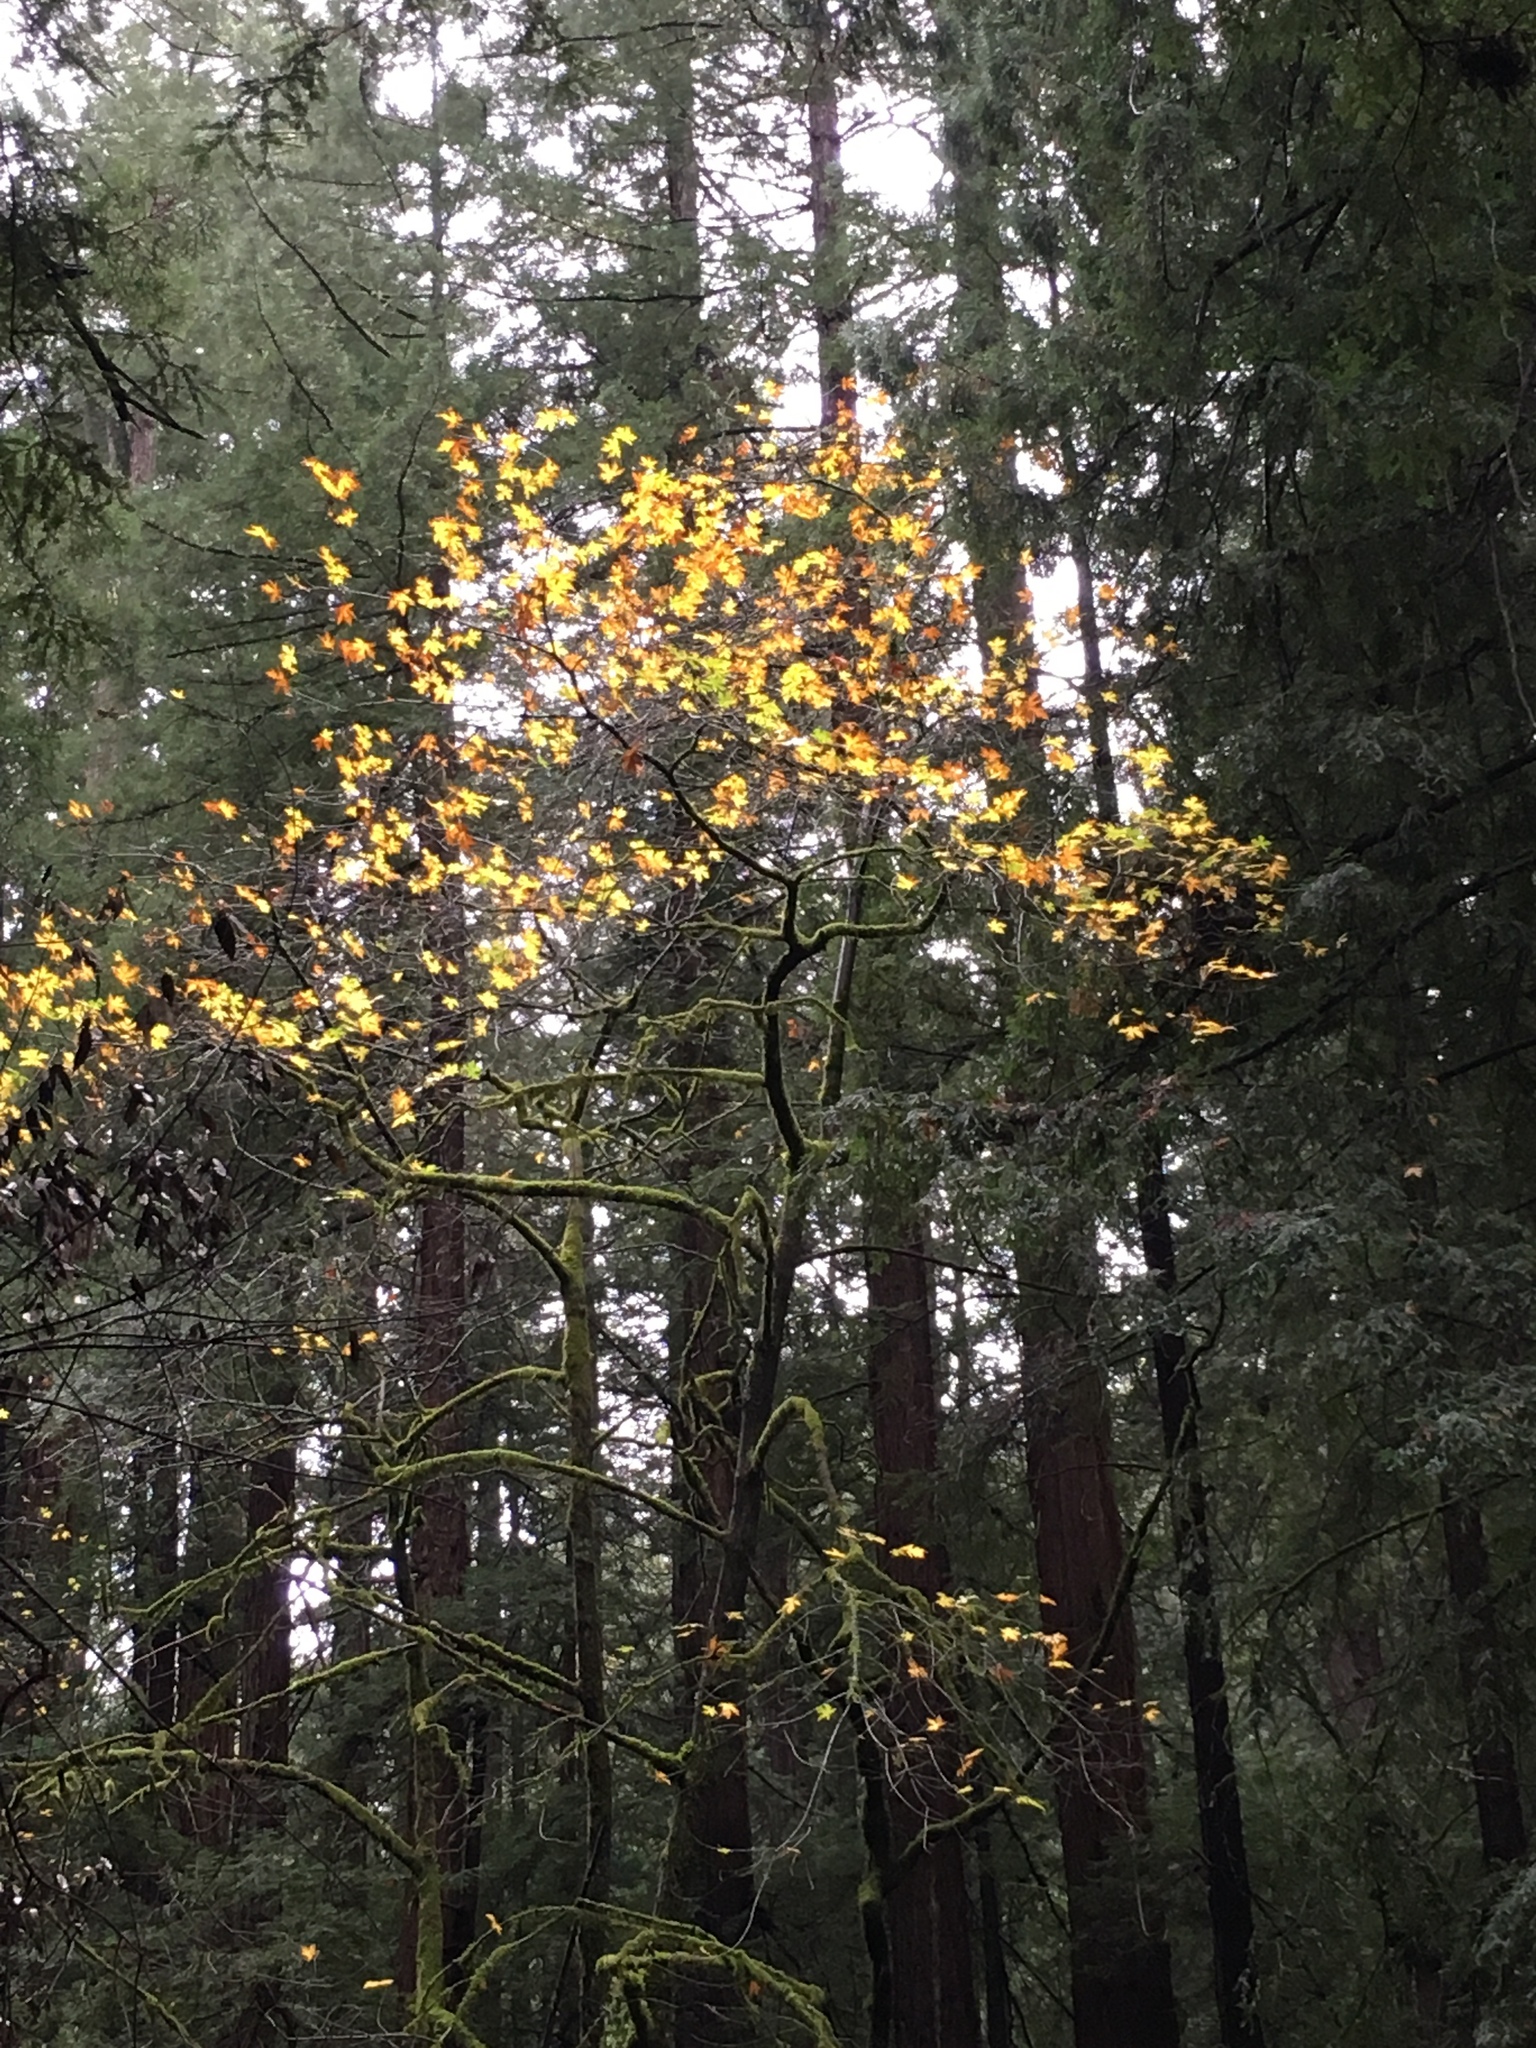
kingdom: Plantae
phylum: Tracheophyta
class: Magnoliopsida
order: Sapindales
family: Sapindaceae
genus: Acer
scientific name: Acer macrophyllum
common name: Oregon maple
